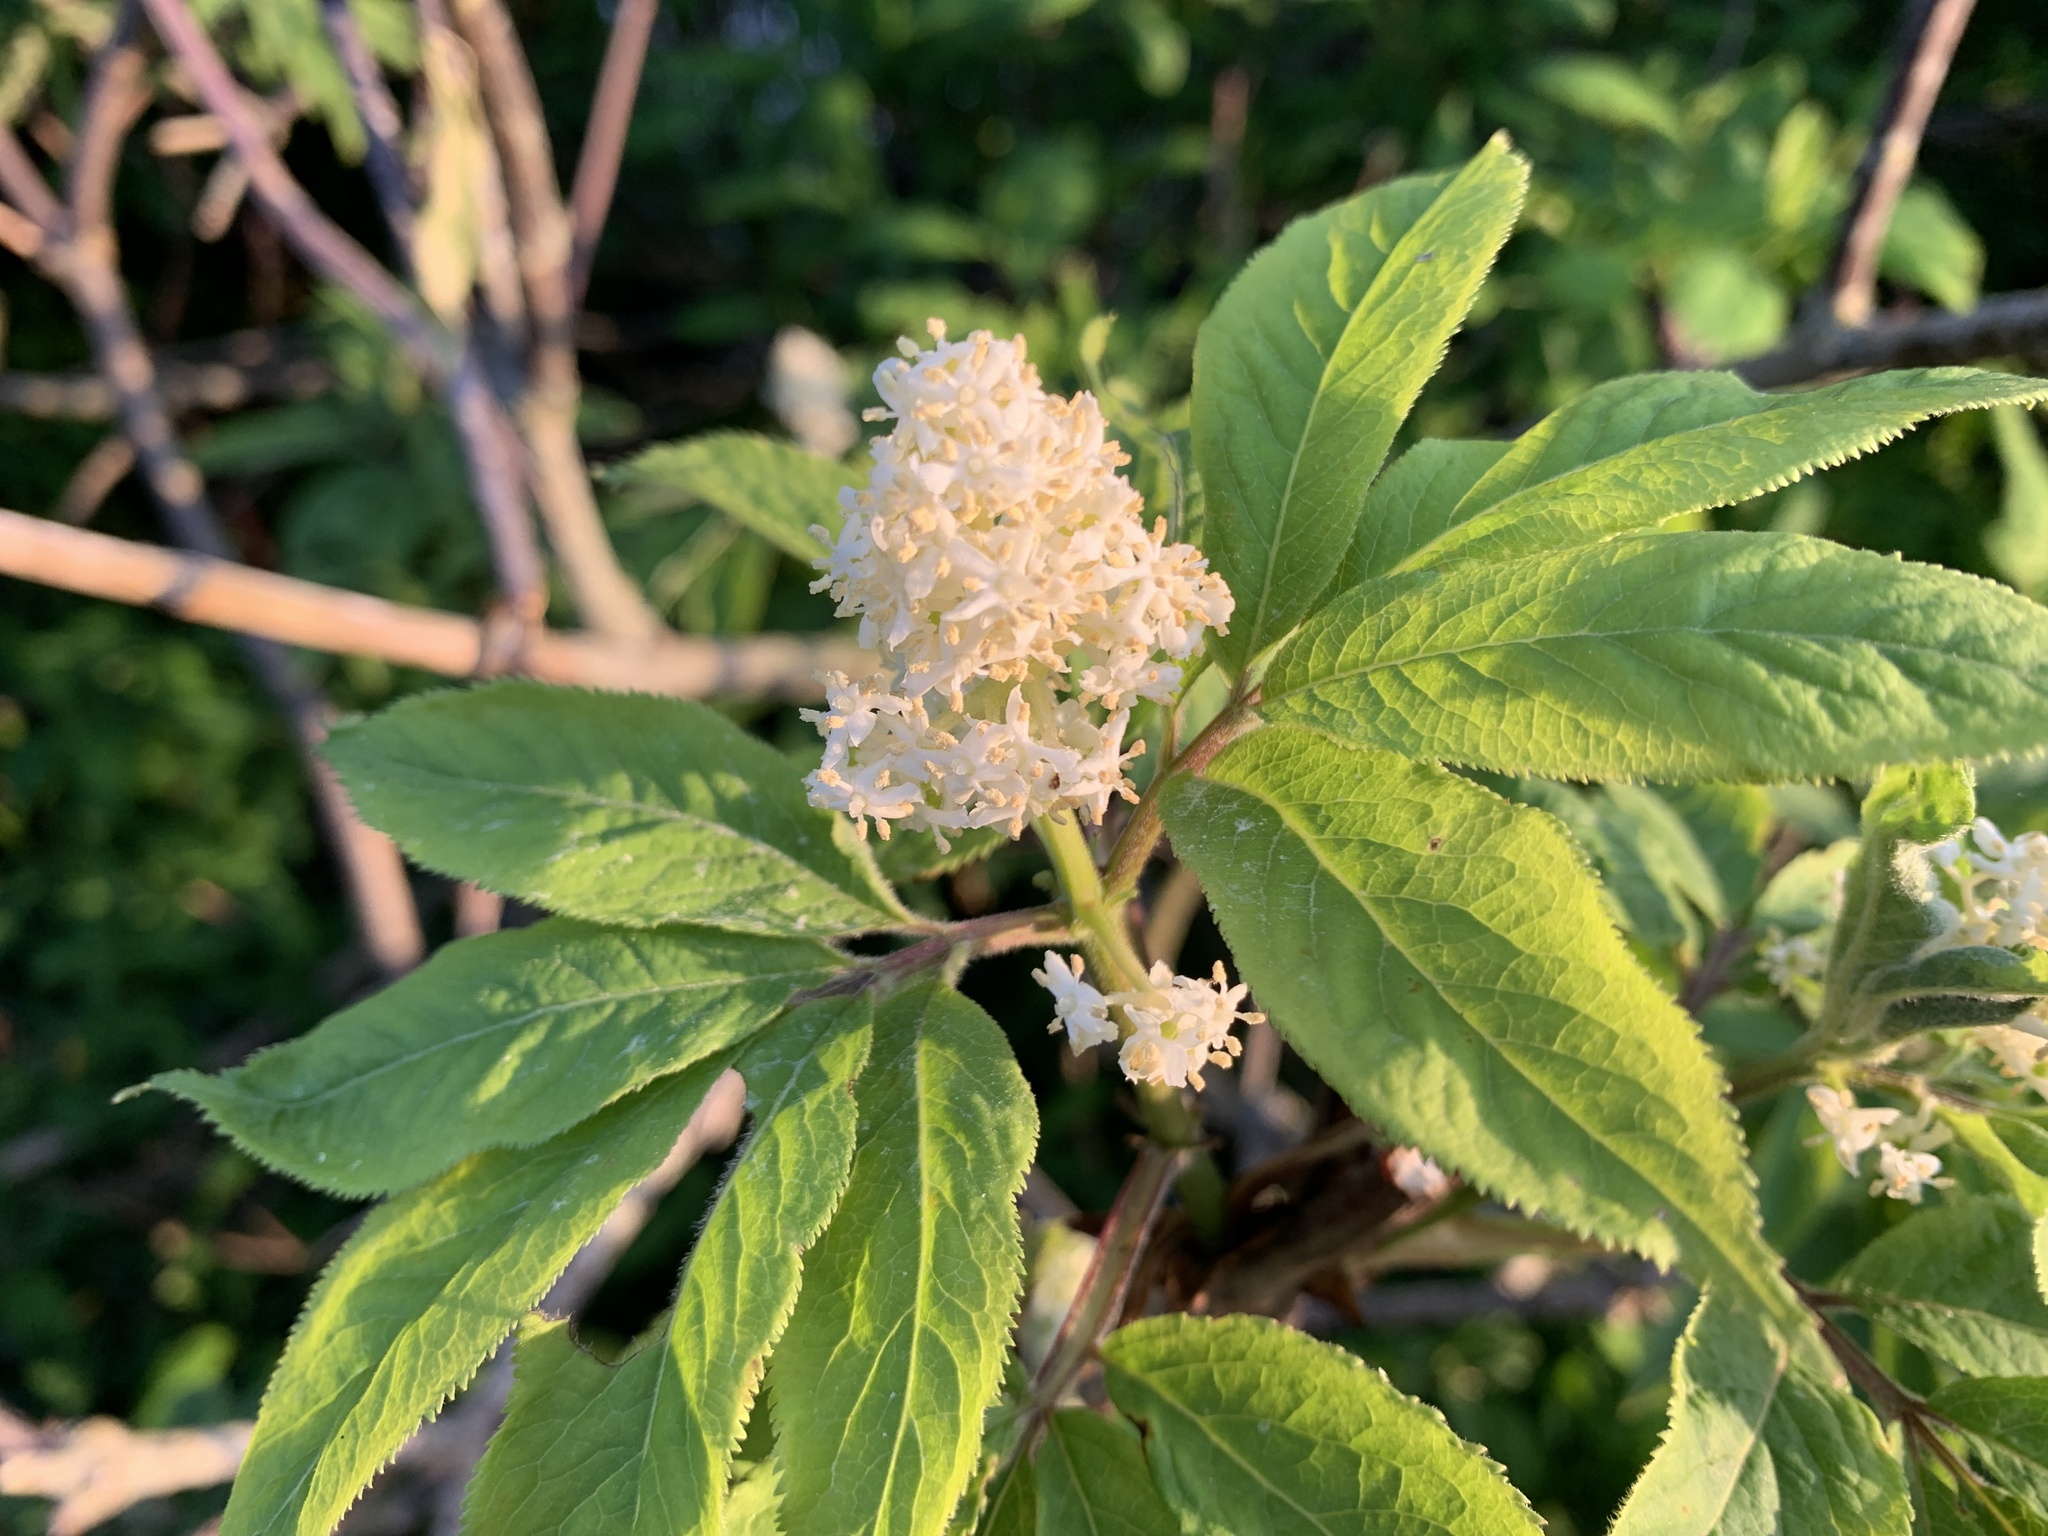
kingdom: Plantae
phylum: Tracheophyta
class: Magnoliopsida
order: Dipsacales
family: Viburnaceae
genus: Sambucus
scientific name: Sambucus racemosa
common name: Red-berried elder
